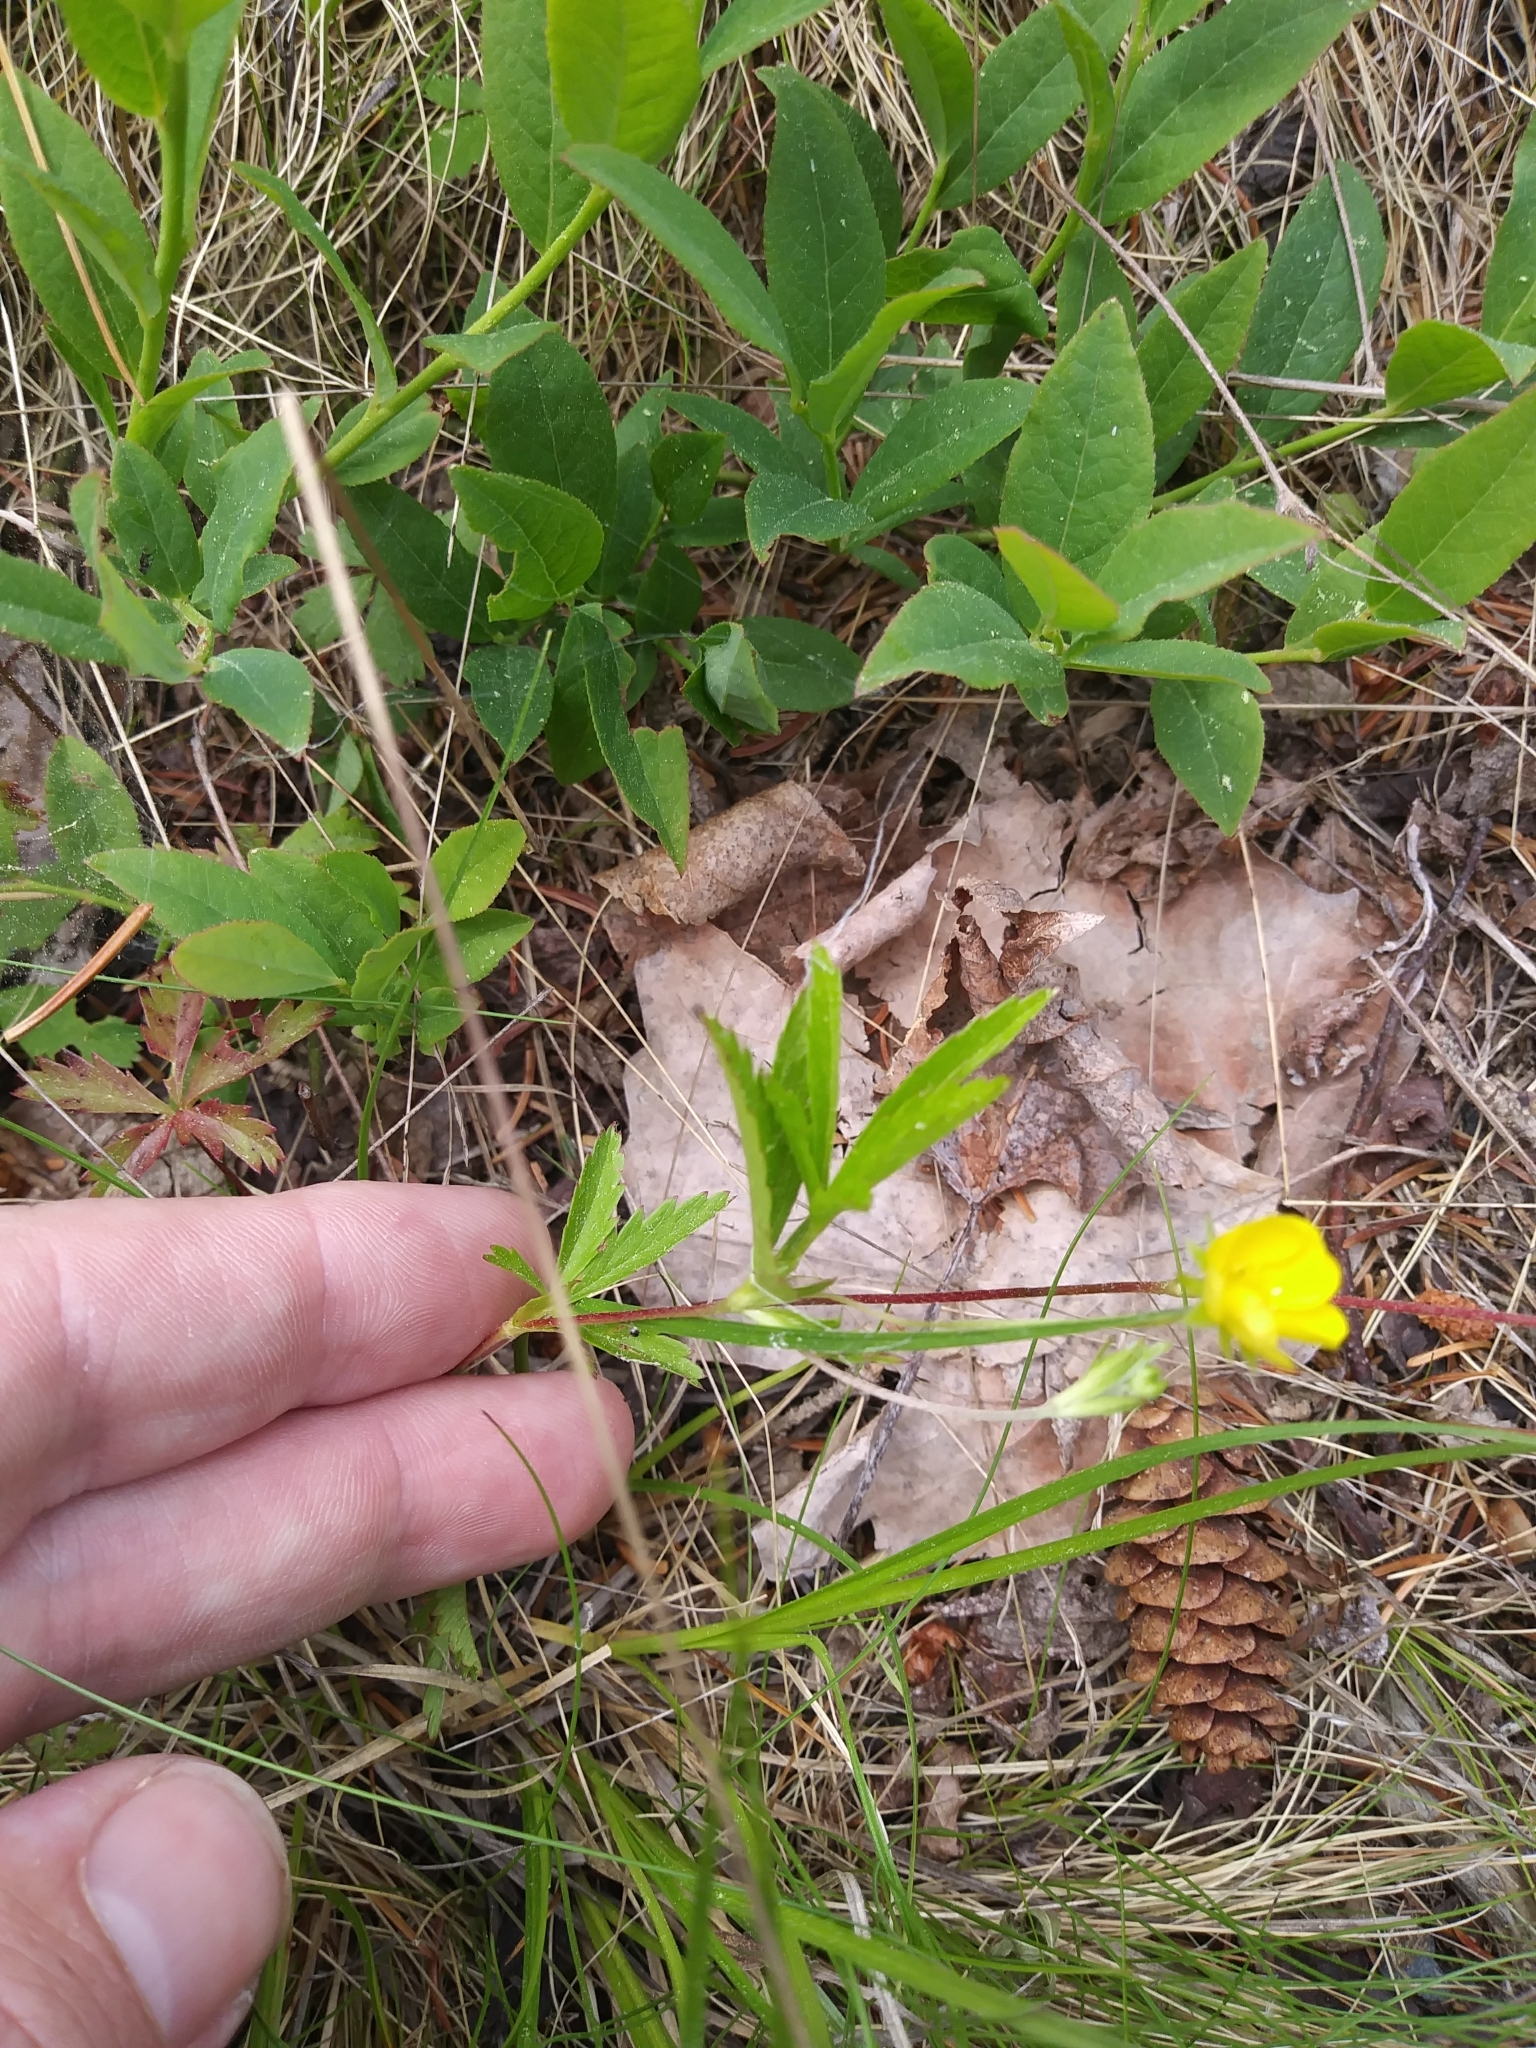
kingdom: Plantae
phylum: Tracheophyta
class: Magnoliopsida
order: Rosales
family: Rosaceae
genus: Potentilla
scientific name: Potentilla simplex
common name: Old field cinquefoil
